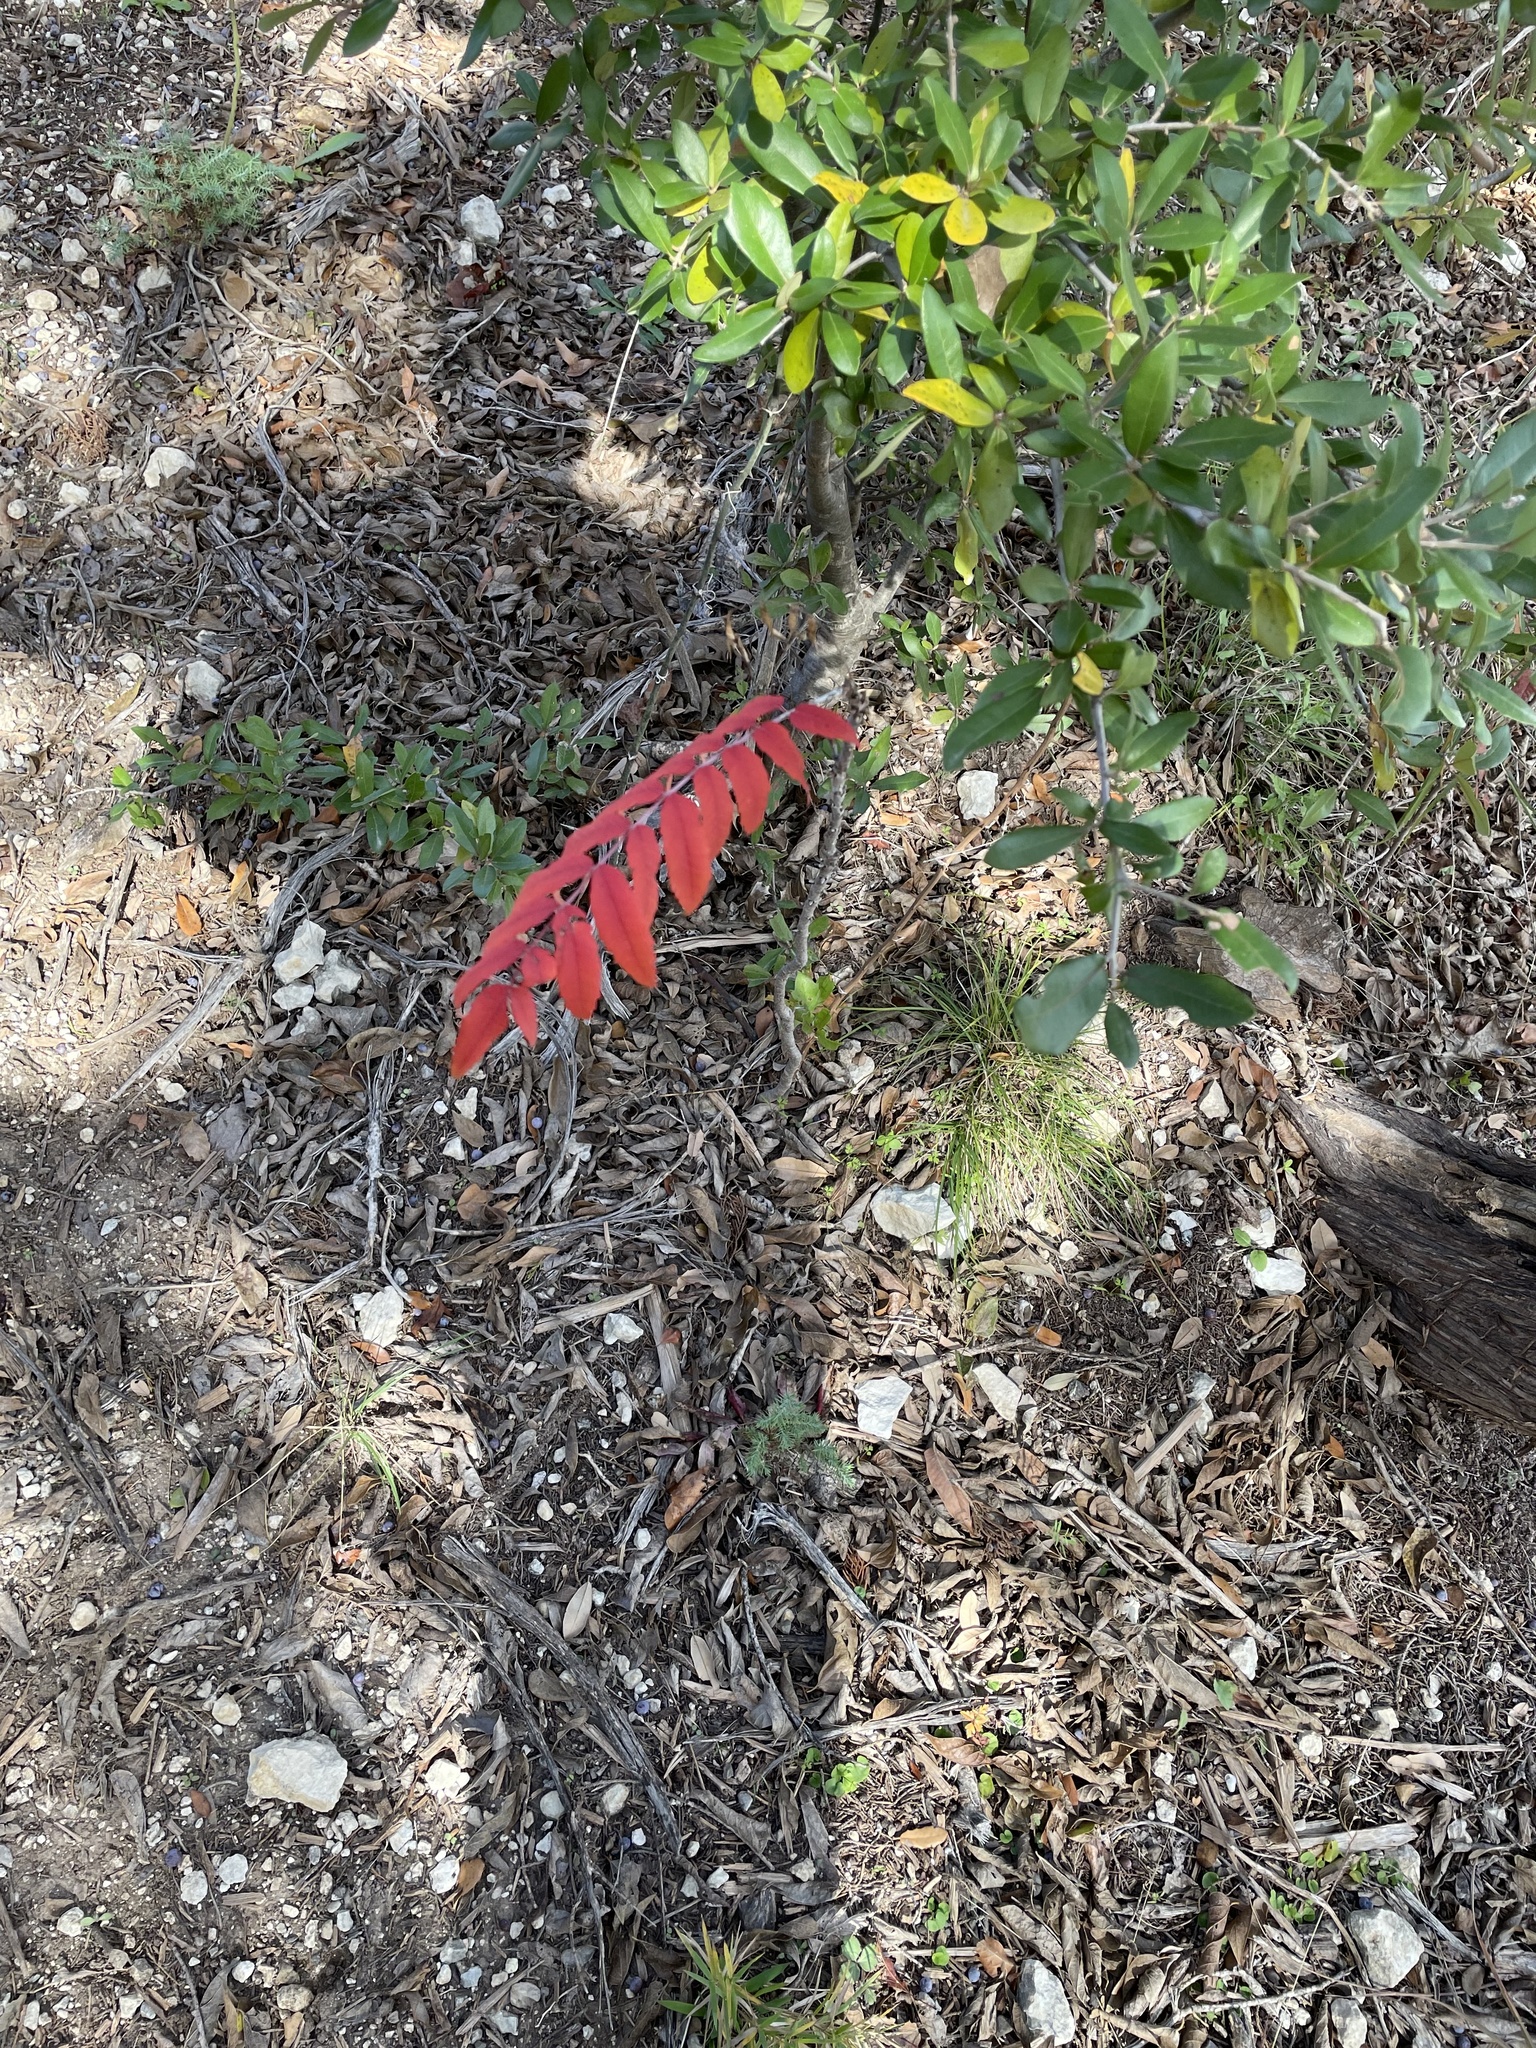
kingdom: Plantae
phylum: Tracheophyta
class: Magnoliopsida
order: Sapindales
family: Anacardiaceae
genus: Rhus
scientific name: Rhus glabra
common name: Scarlet sumac
